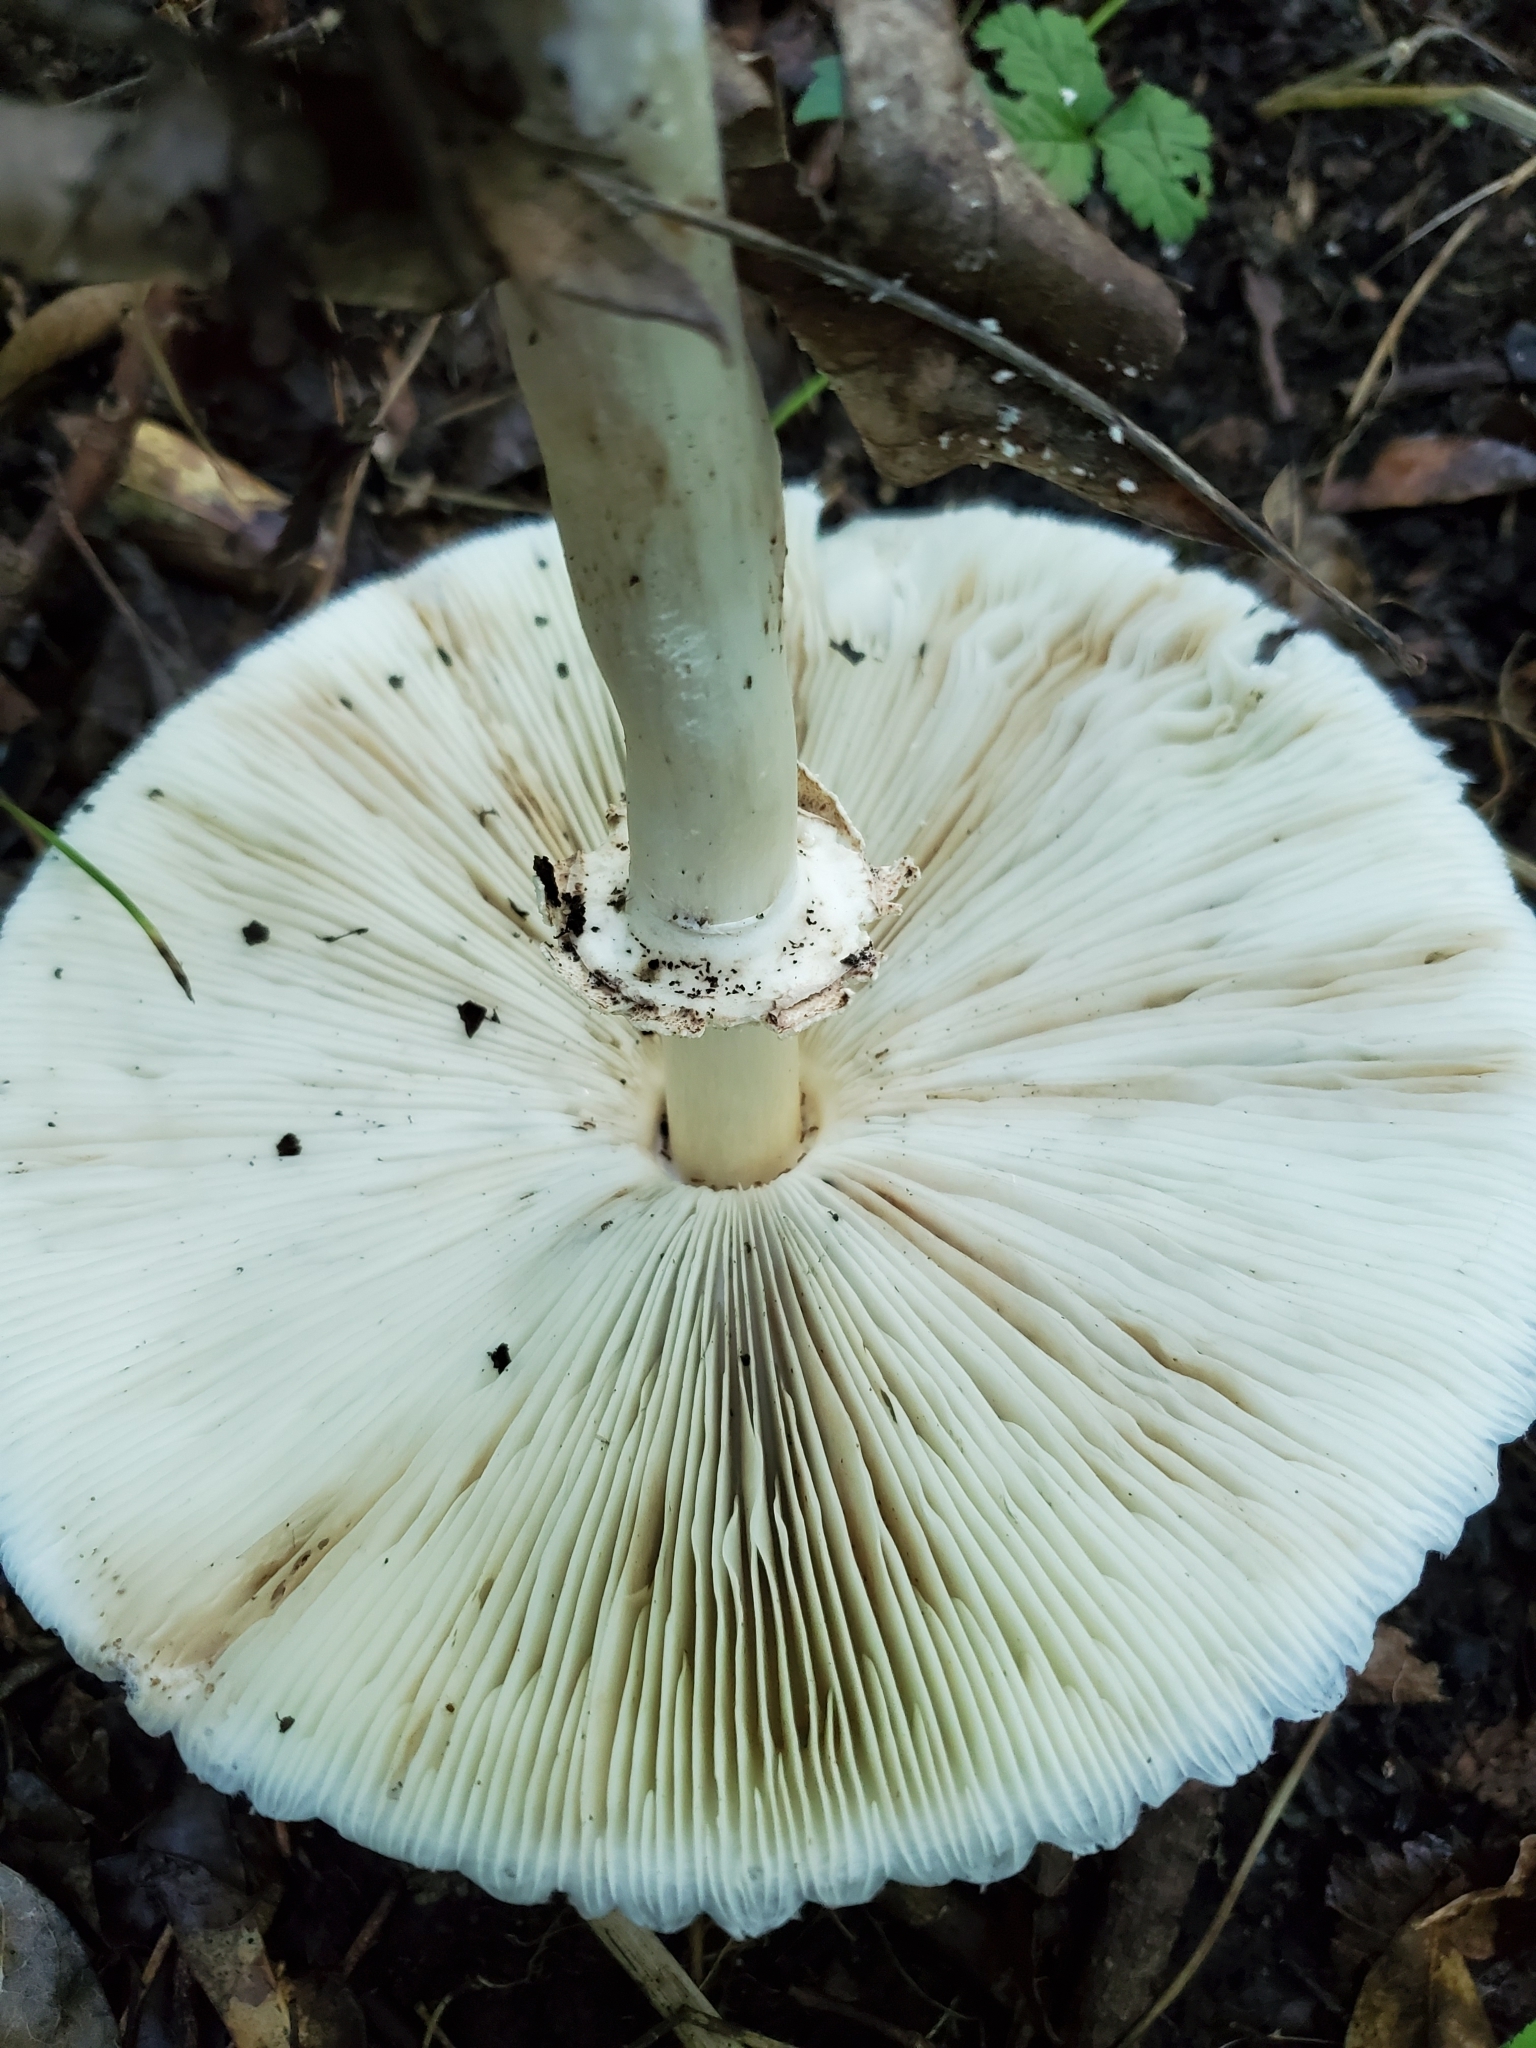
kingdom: Fungi
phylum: Basidiomycota
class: Agaricomycetes
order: Agaricales
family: Agaricaceae
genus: Chlorophyllum
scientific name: Chlorophyllum molybdites
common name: False parasol
